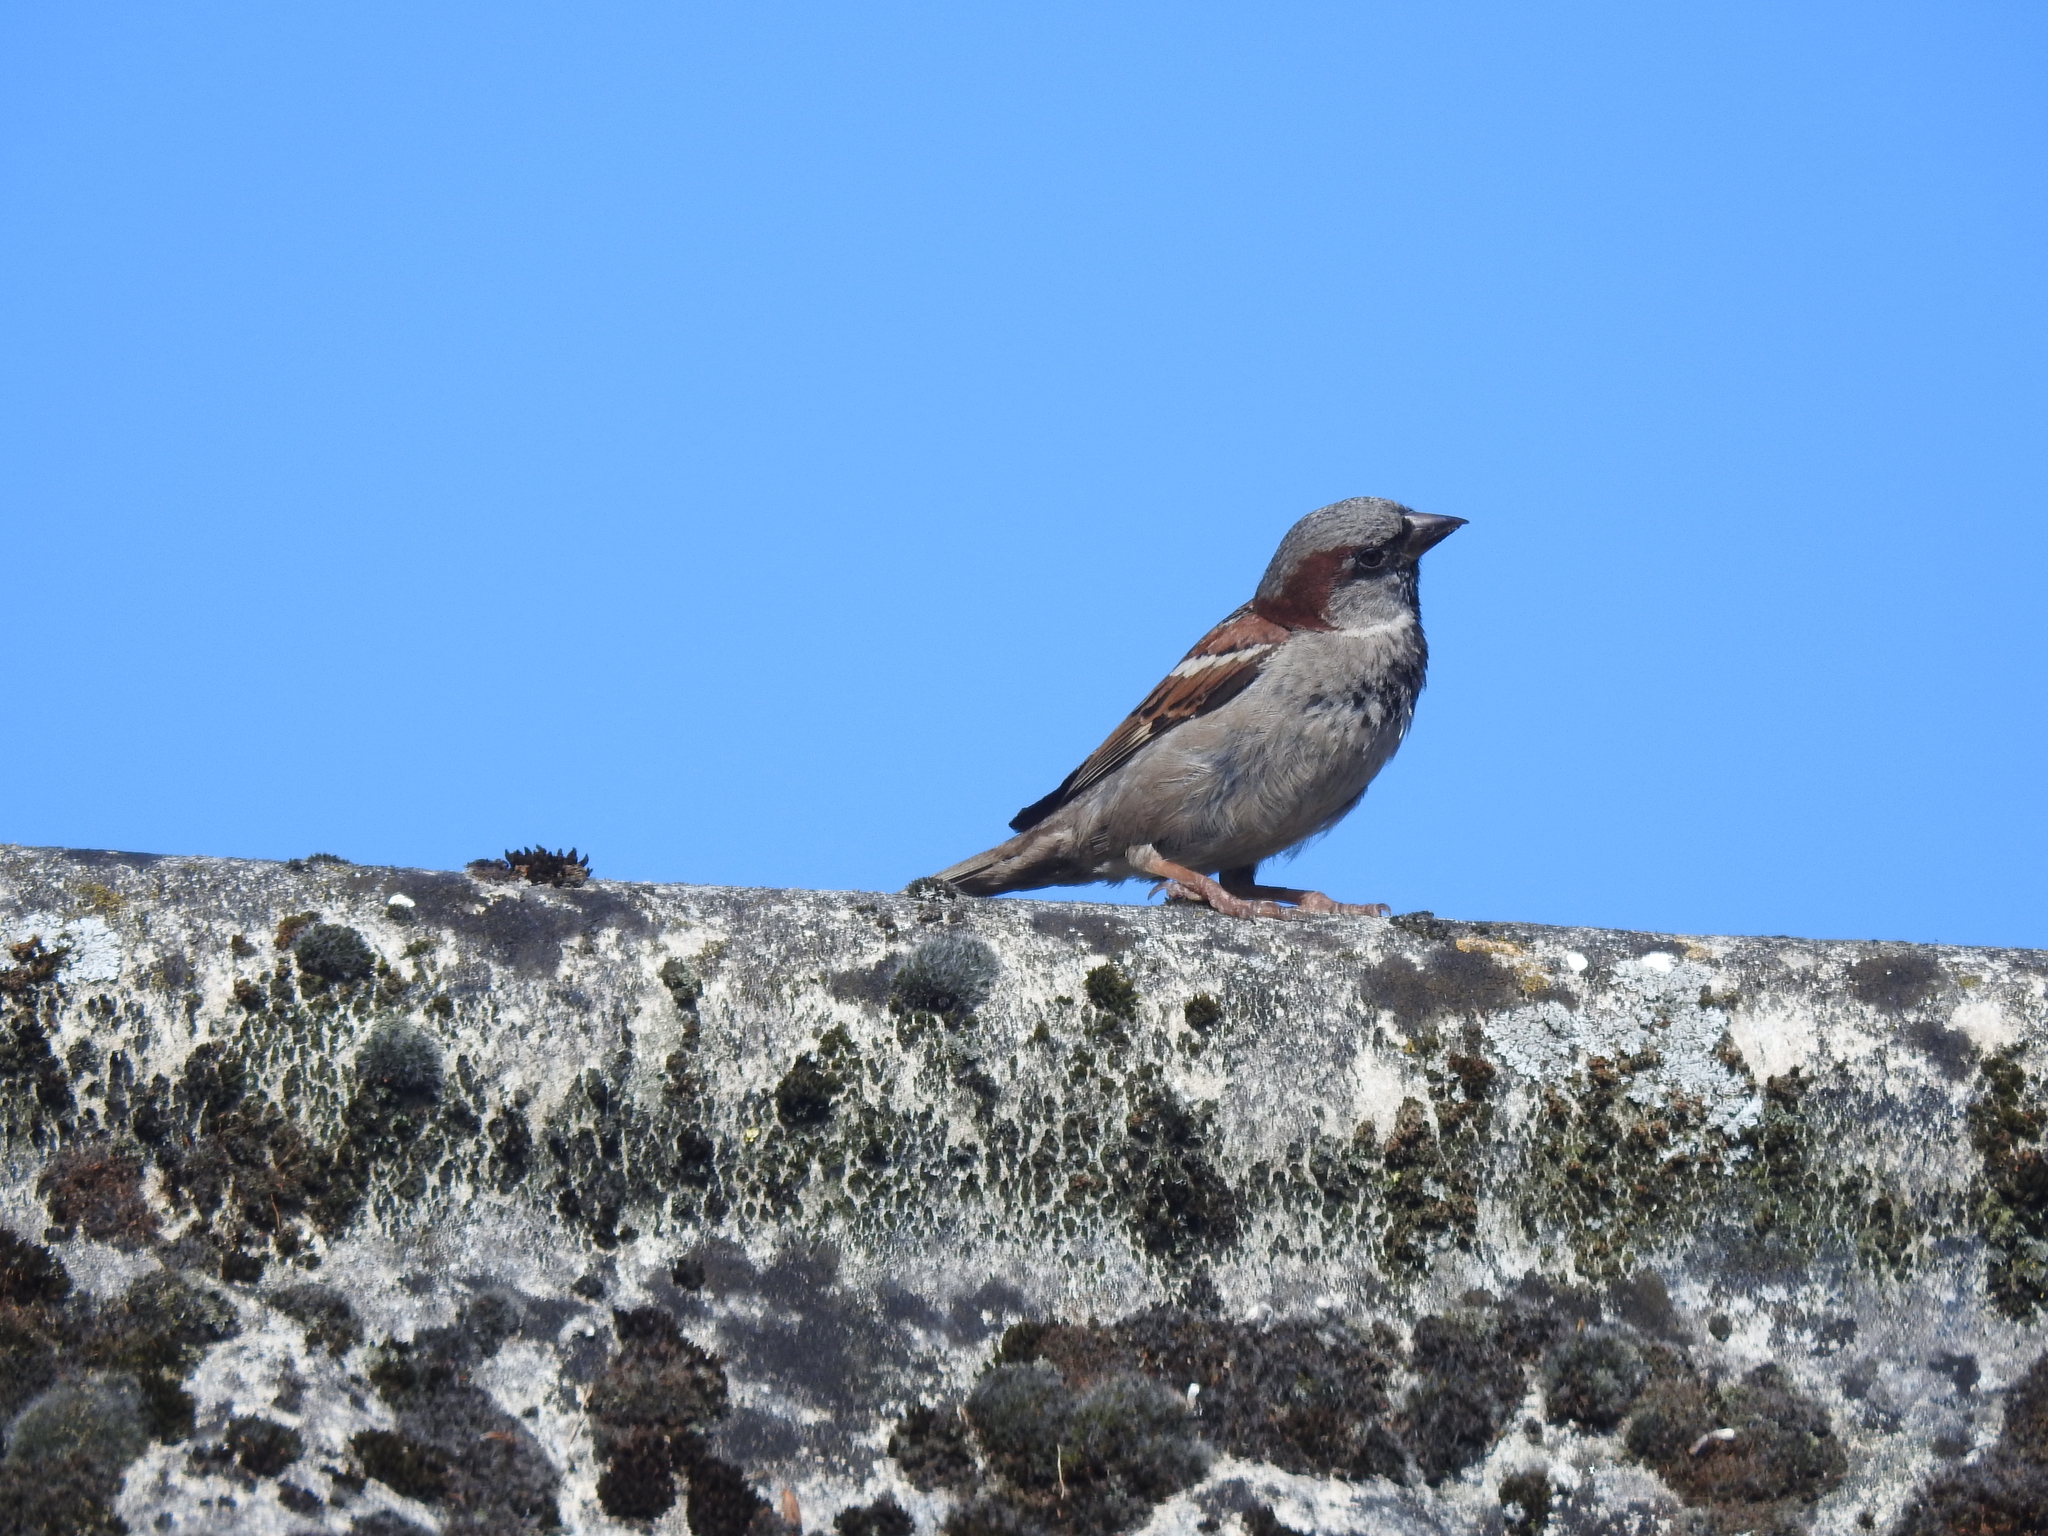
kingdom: Animalia
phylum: Chordata
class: Aves
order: Passeriformes
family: Passeridae
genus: Passer
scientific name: Passer domesticus
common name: House sparrow
